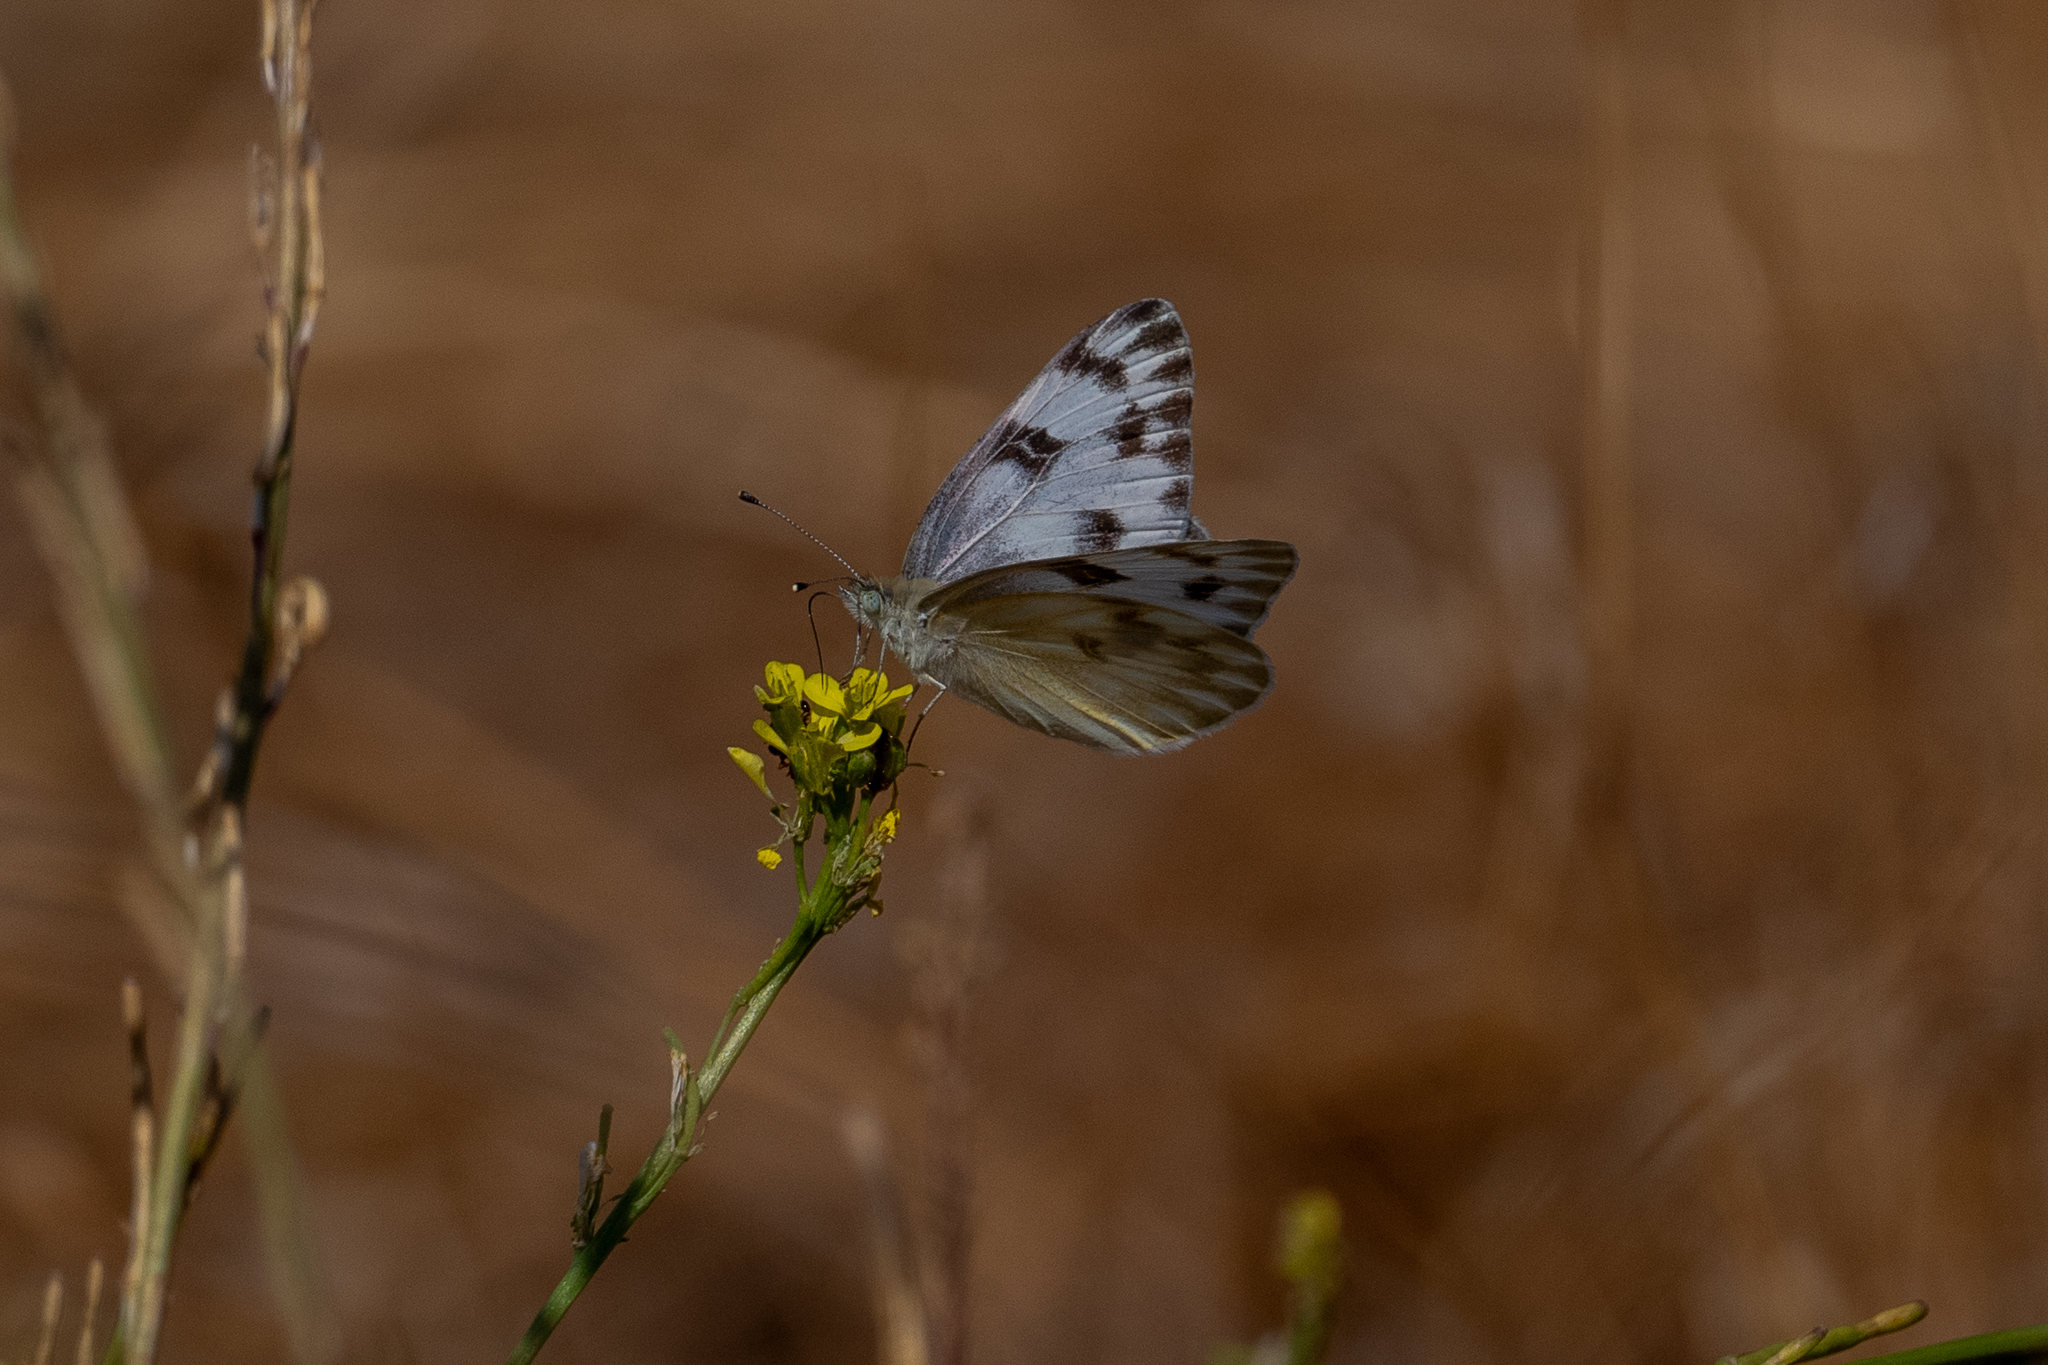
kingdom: Animalia
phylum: Arthropoda
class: Insecta
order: Lepidoptera
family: Pieridae
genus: Pontia
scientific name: Pontia protodice
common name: Checkered white
